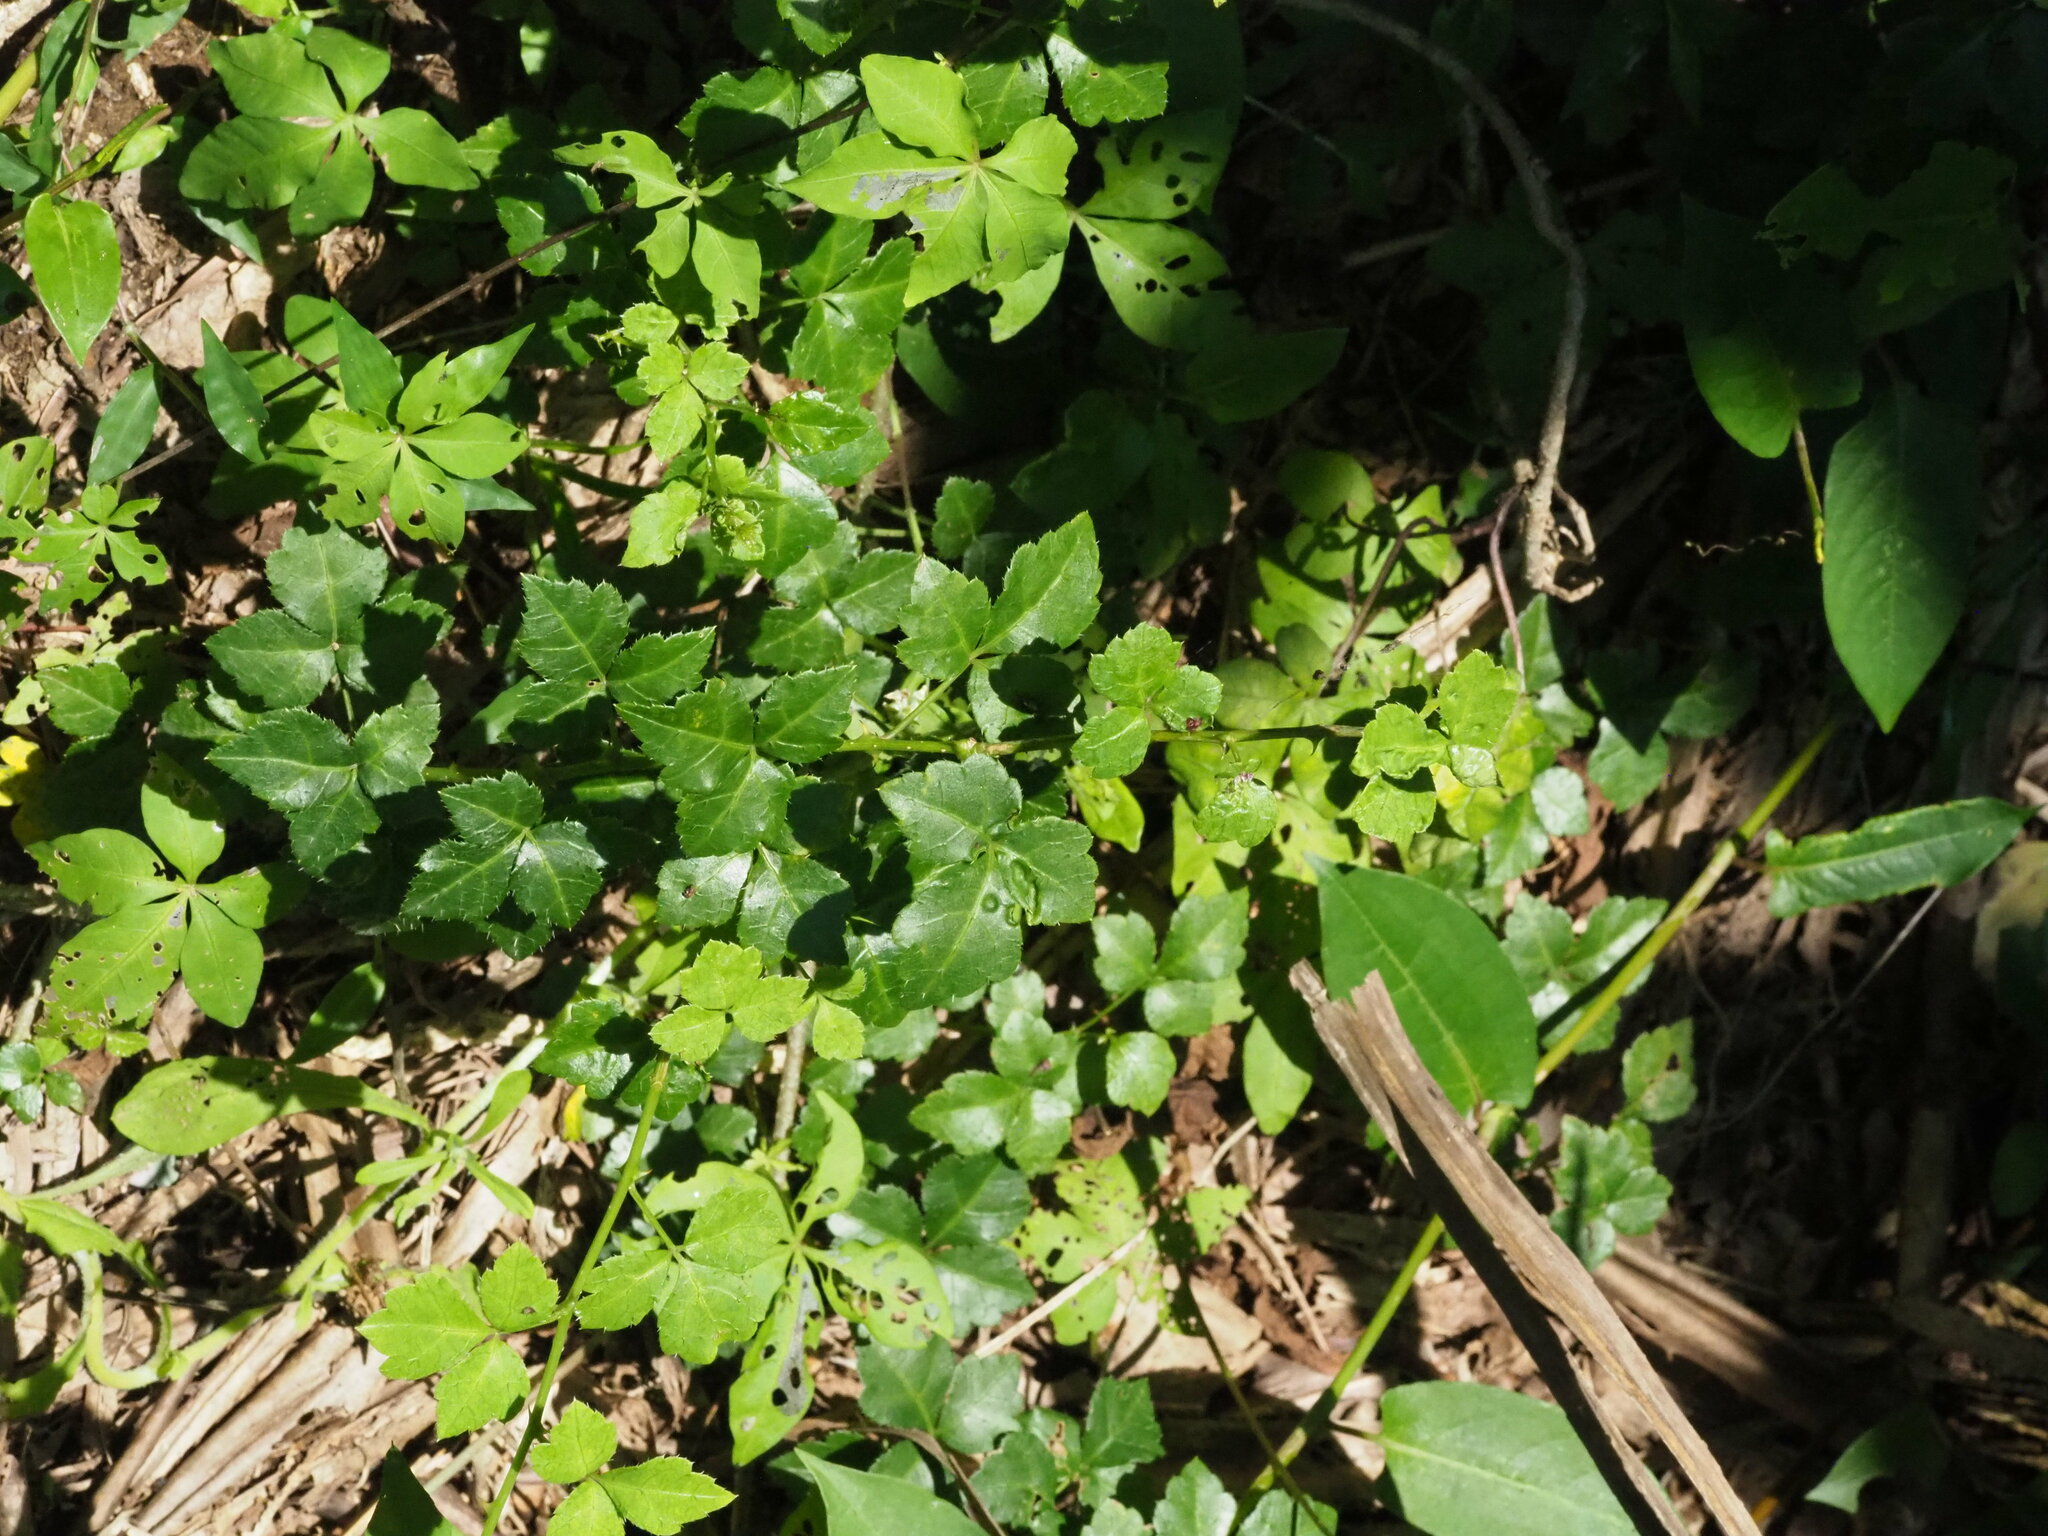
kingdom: Plantae
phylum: Tracheophyta
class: Magnoliopsida
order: Apiales
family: Araliaceae
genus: Eleutherococcus
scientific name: Eleutherococcus setosus
